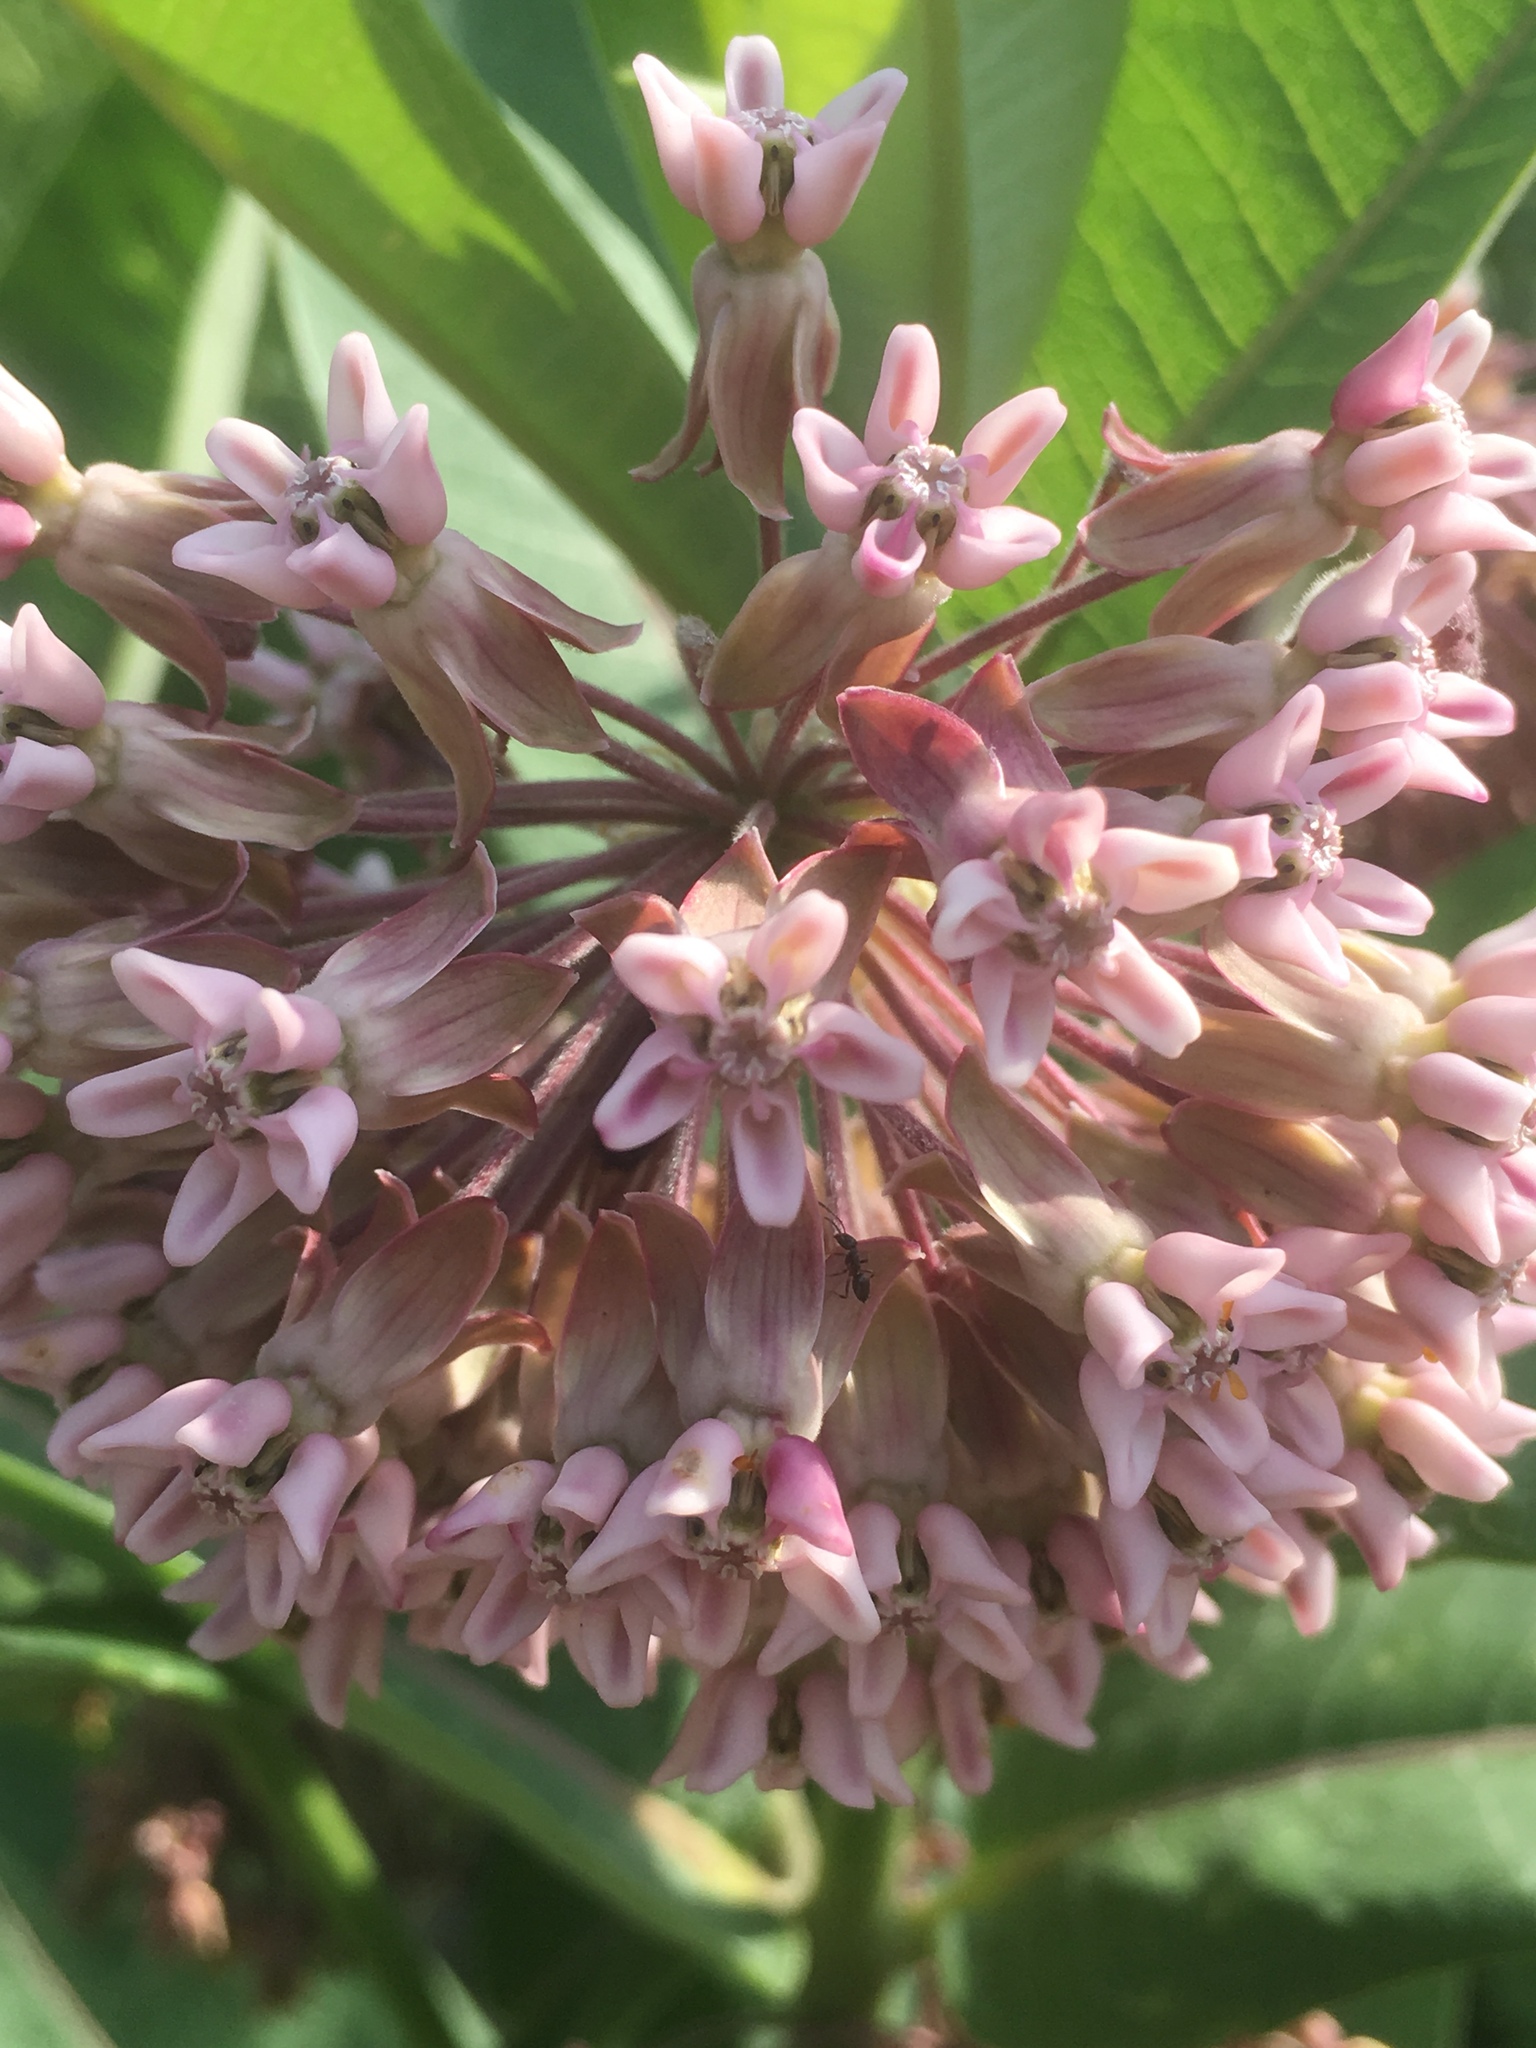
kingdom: Plantae
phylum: Tracheophyta
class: Magnoliopsida
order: Gentianales
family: Apocynaceae
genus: Asclepias
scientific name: Asclepias syriaca
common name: Common milkweed
